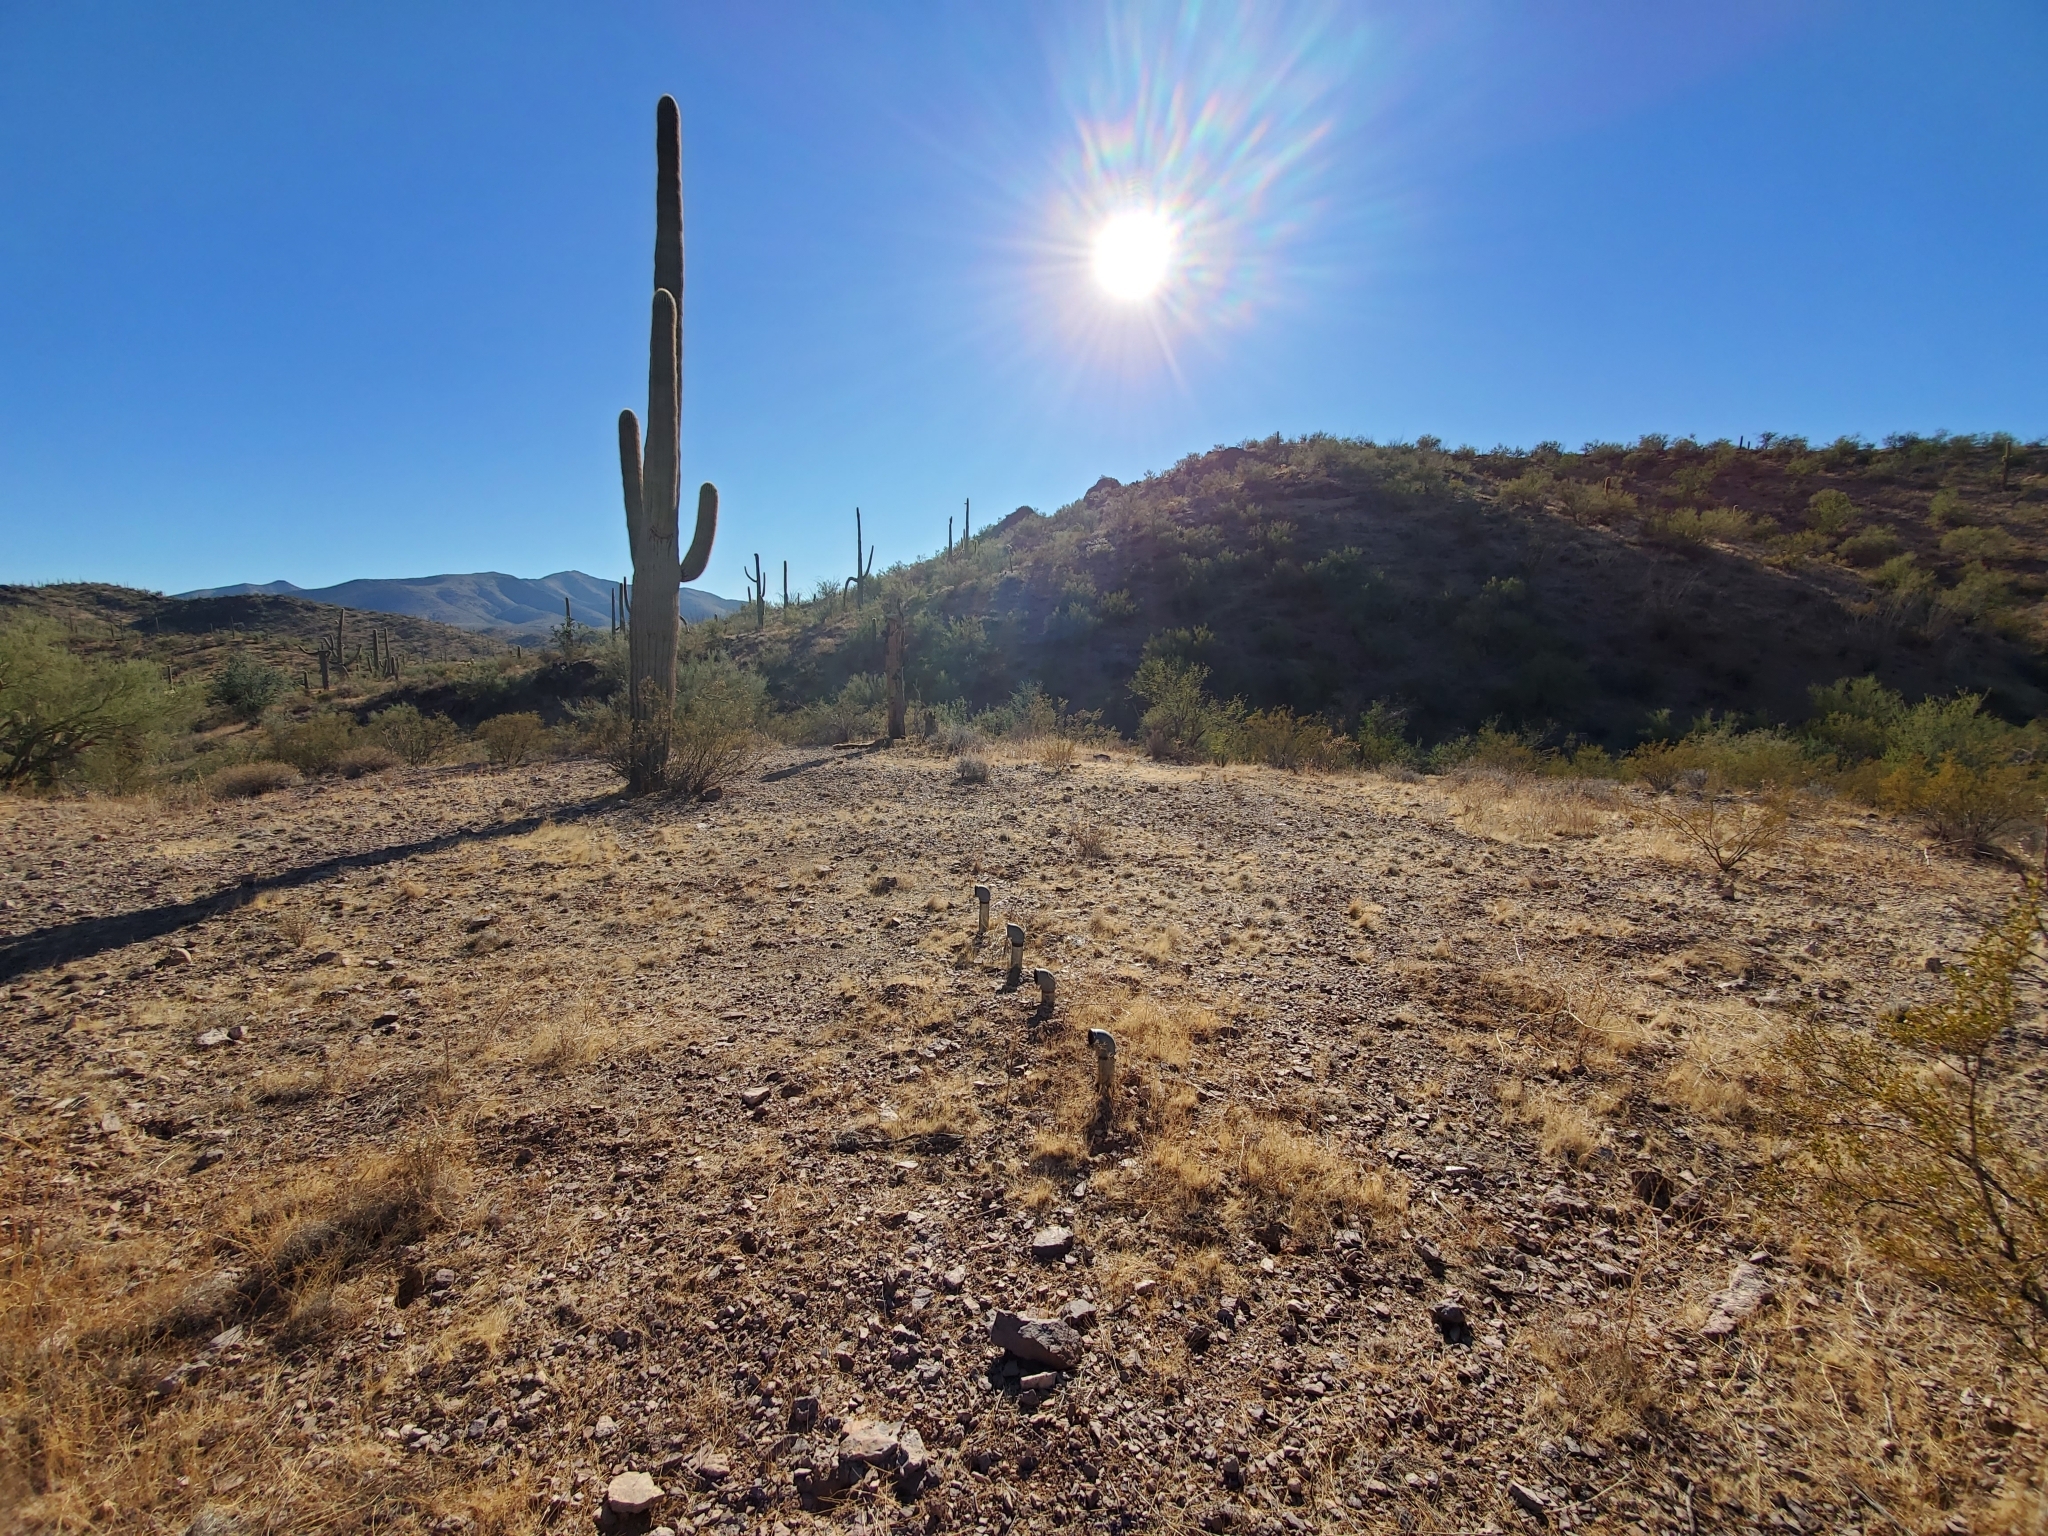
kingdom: Plantae
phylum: Tracheophyta
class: Magnoliopsida
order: Caryophyllales
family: Cactaceae
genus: Carnegiea
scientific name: Carnegiea gigantea
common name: Saguaro
